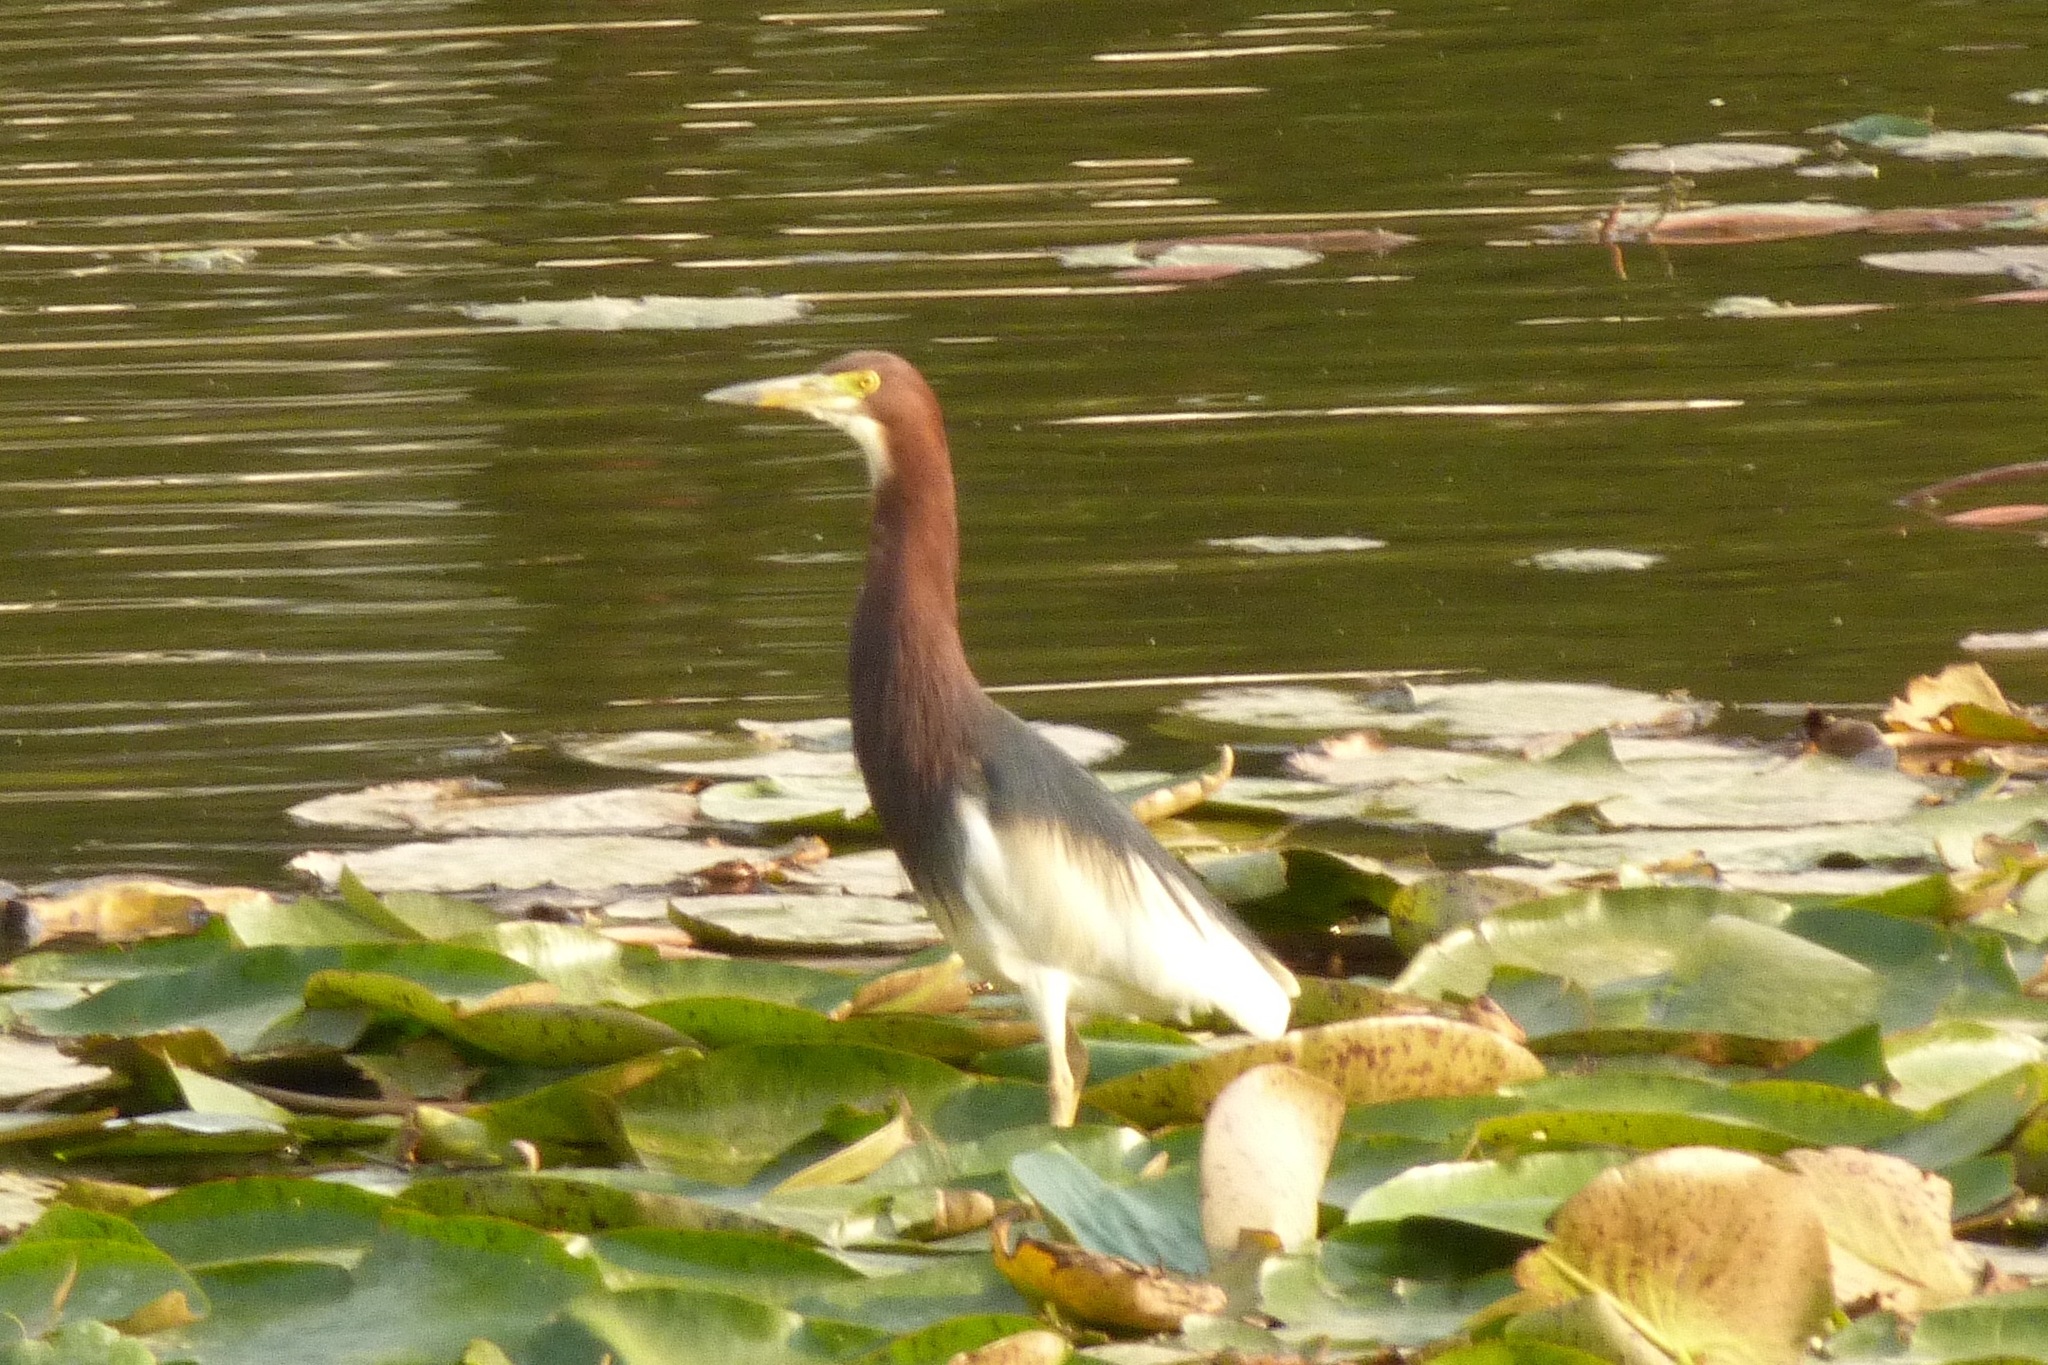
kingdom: Animalia
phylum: Chordata
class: Aves
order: Pelecaniformes
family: Ardeidae
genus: Ardeola
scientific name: Ardeola bacchus
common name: Chinese pond heron
